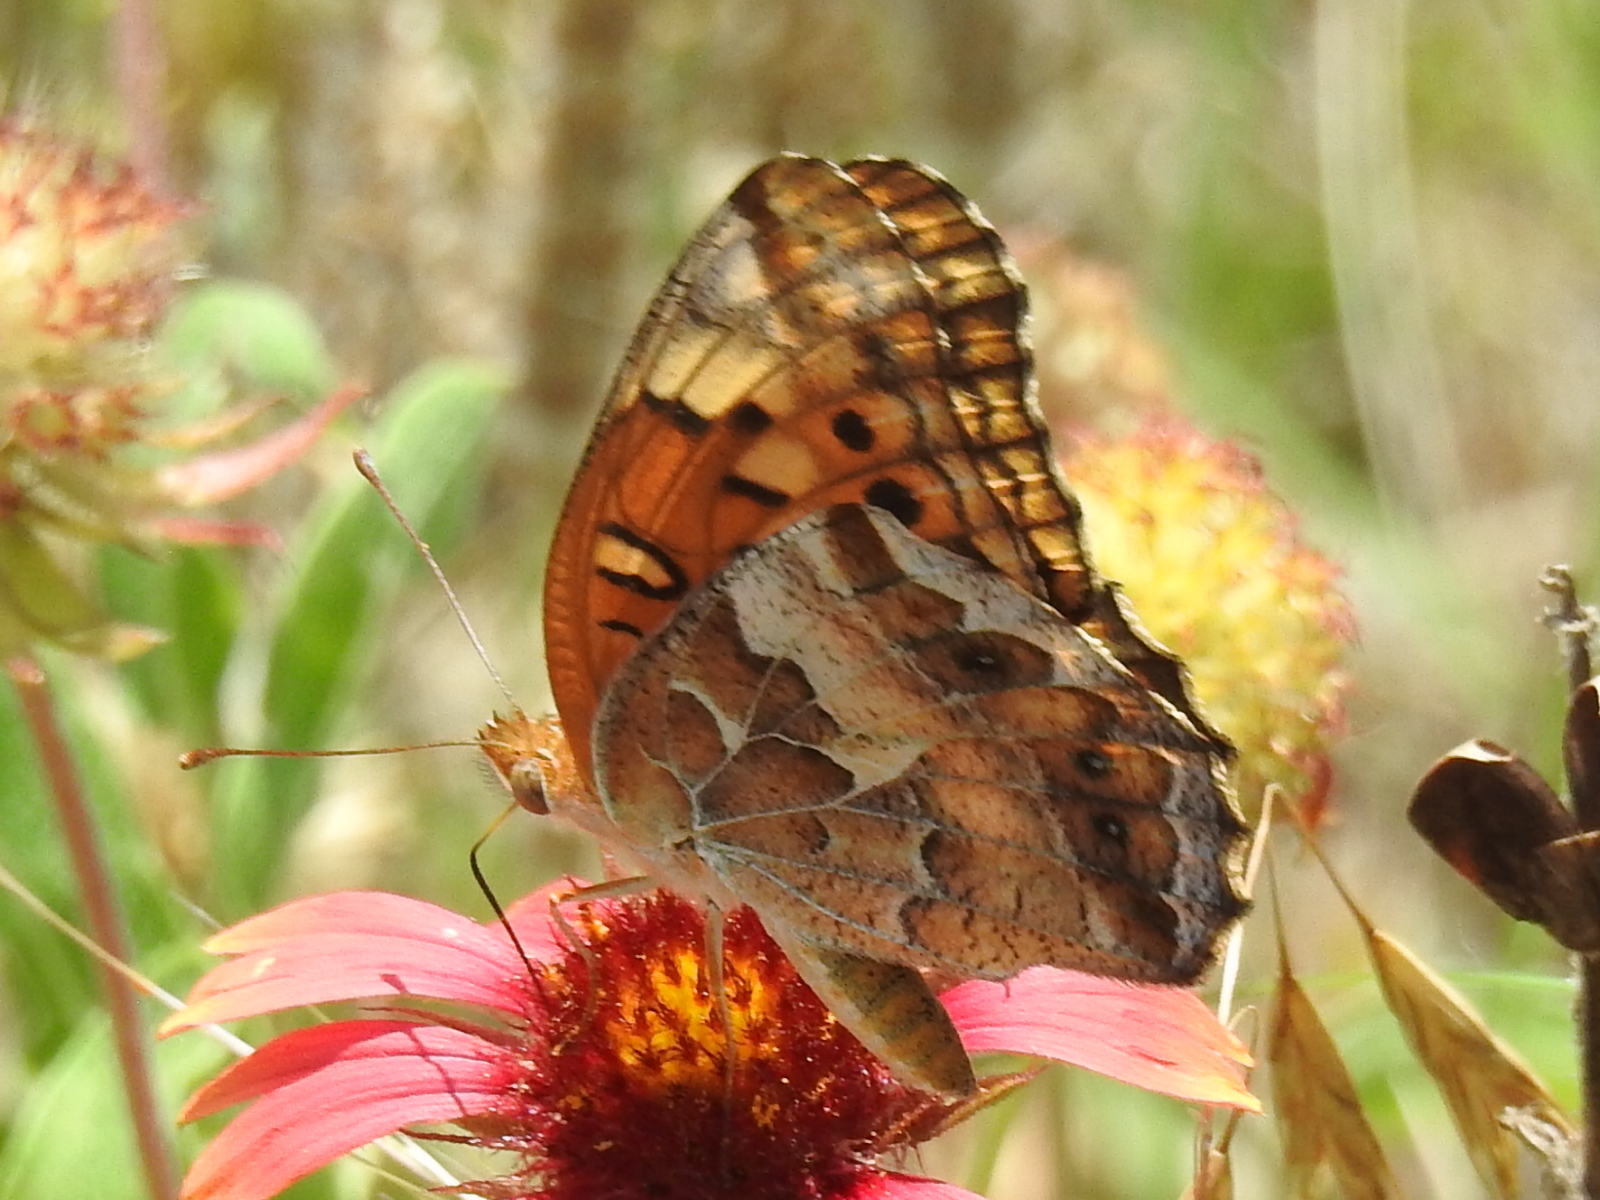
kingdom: Animalia
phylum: Arthropoda
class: Insecta
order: Lepidoptera
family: Nymphalidae
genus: Euptoieta
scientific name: Euptoieta claudia
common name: Variegated fritillary
